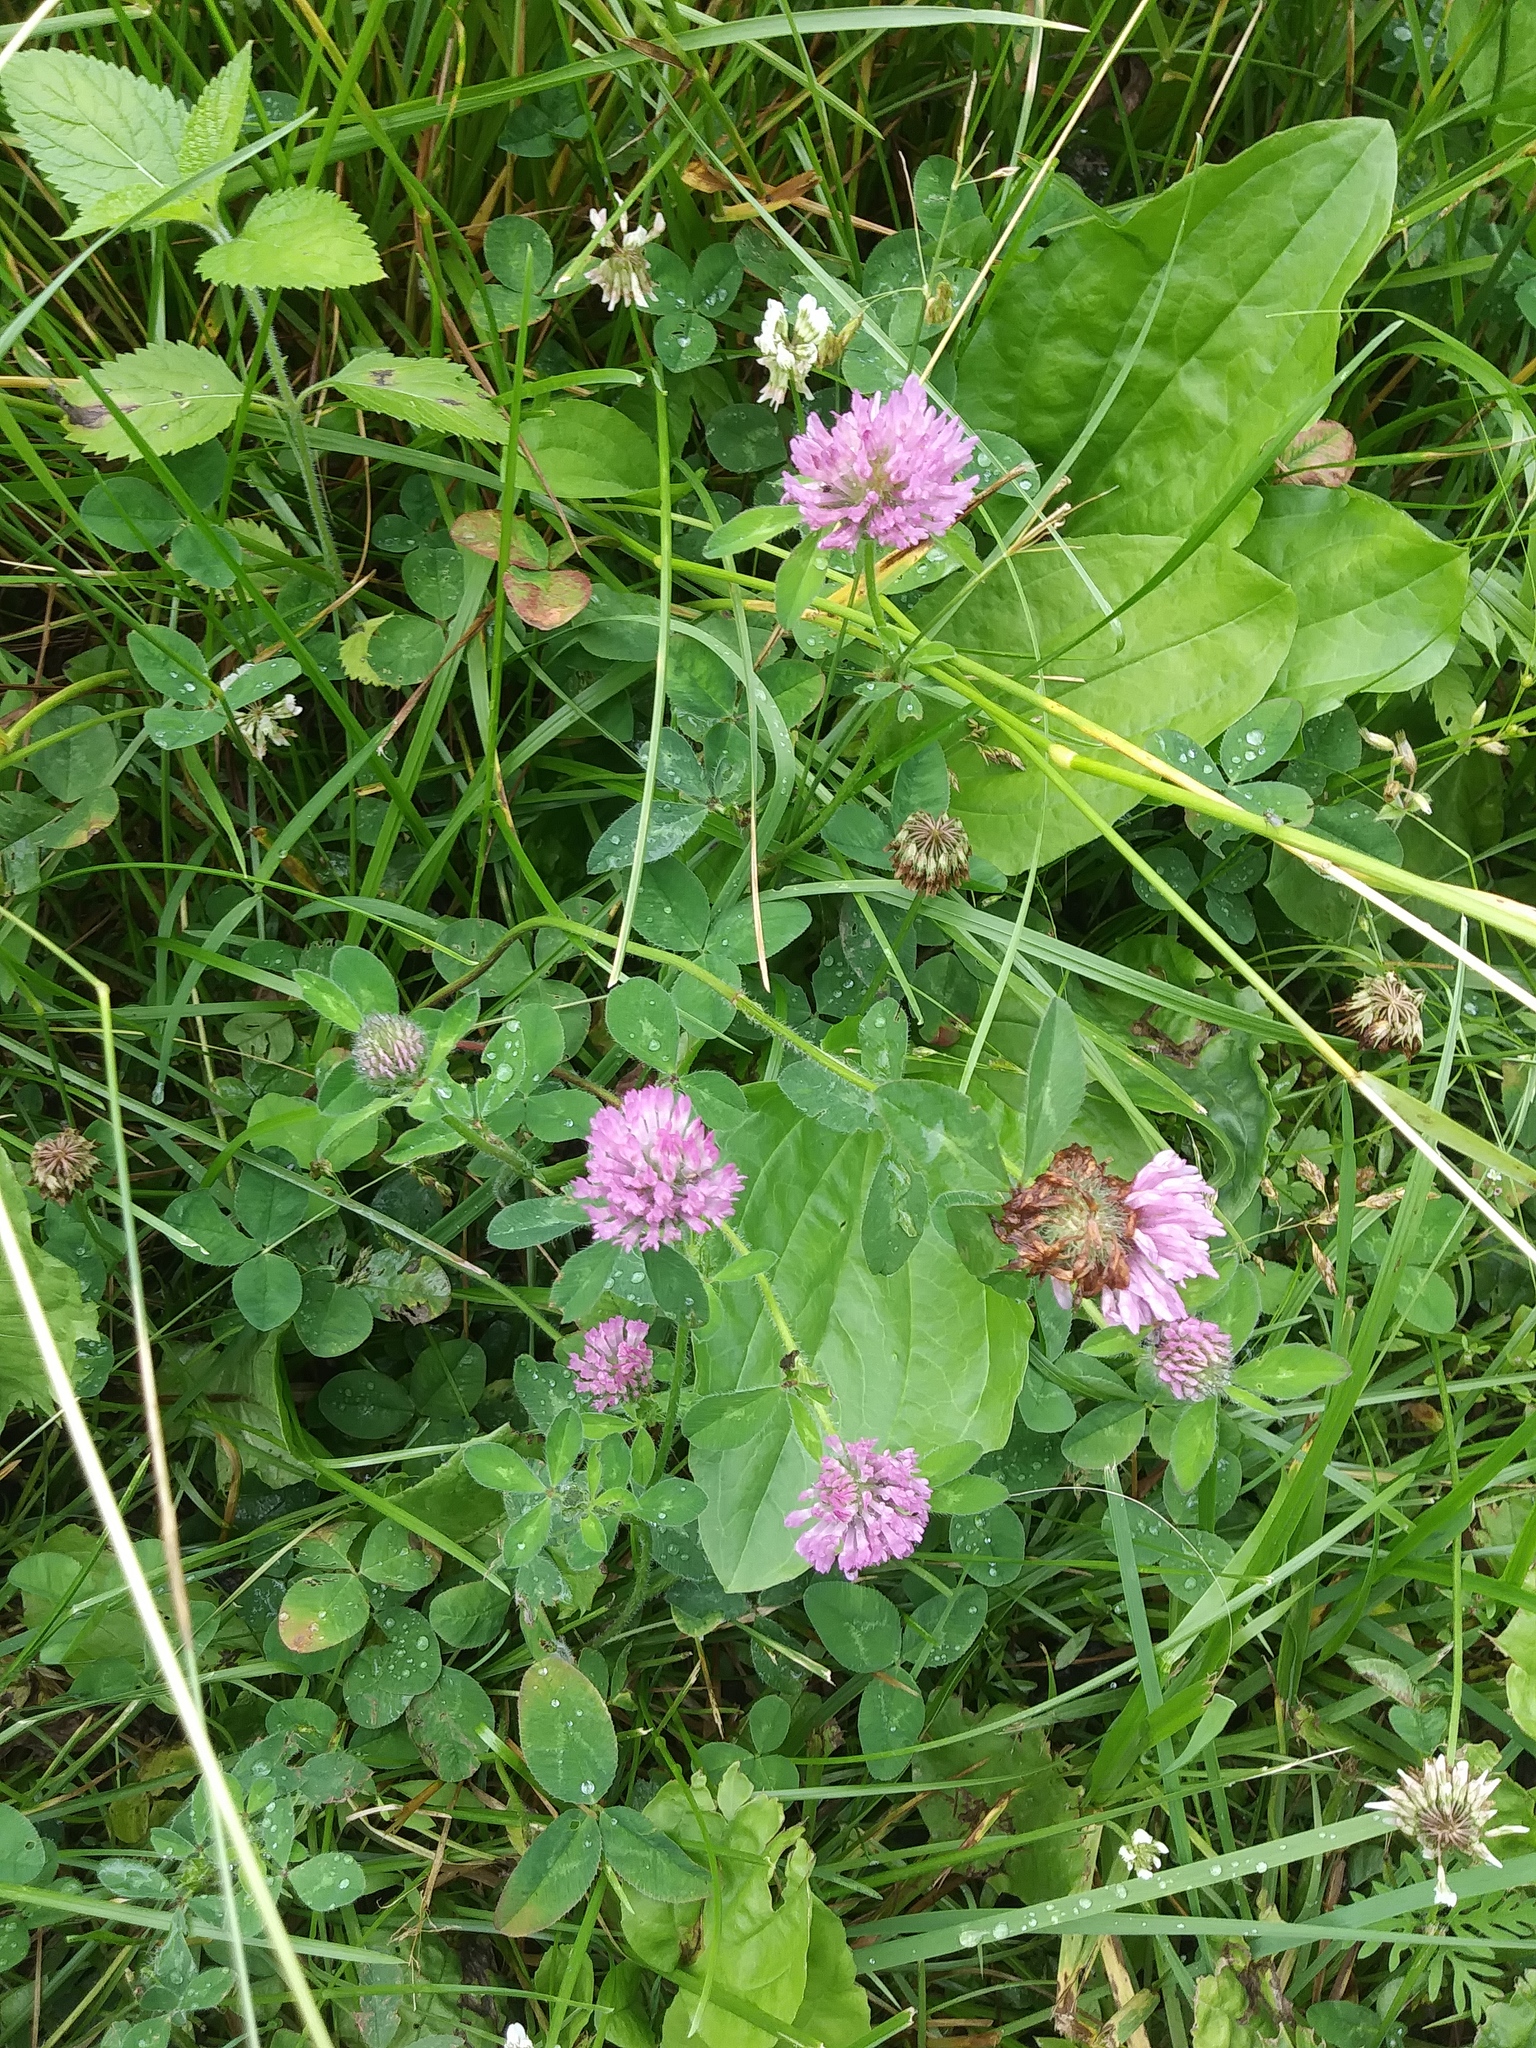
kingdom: Plantae
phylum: Tracheophyta
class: Magnoliopsida
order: Fabales
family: Fabaceae
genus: Trifolium
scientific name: Trifolium pratense
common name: Red clover
